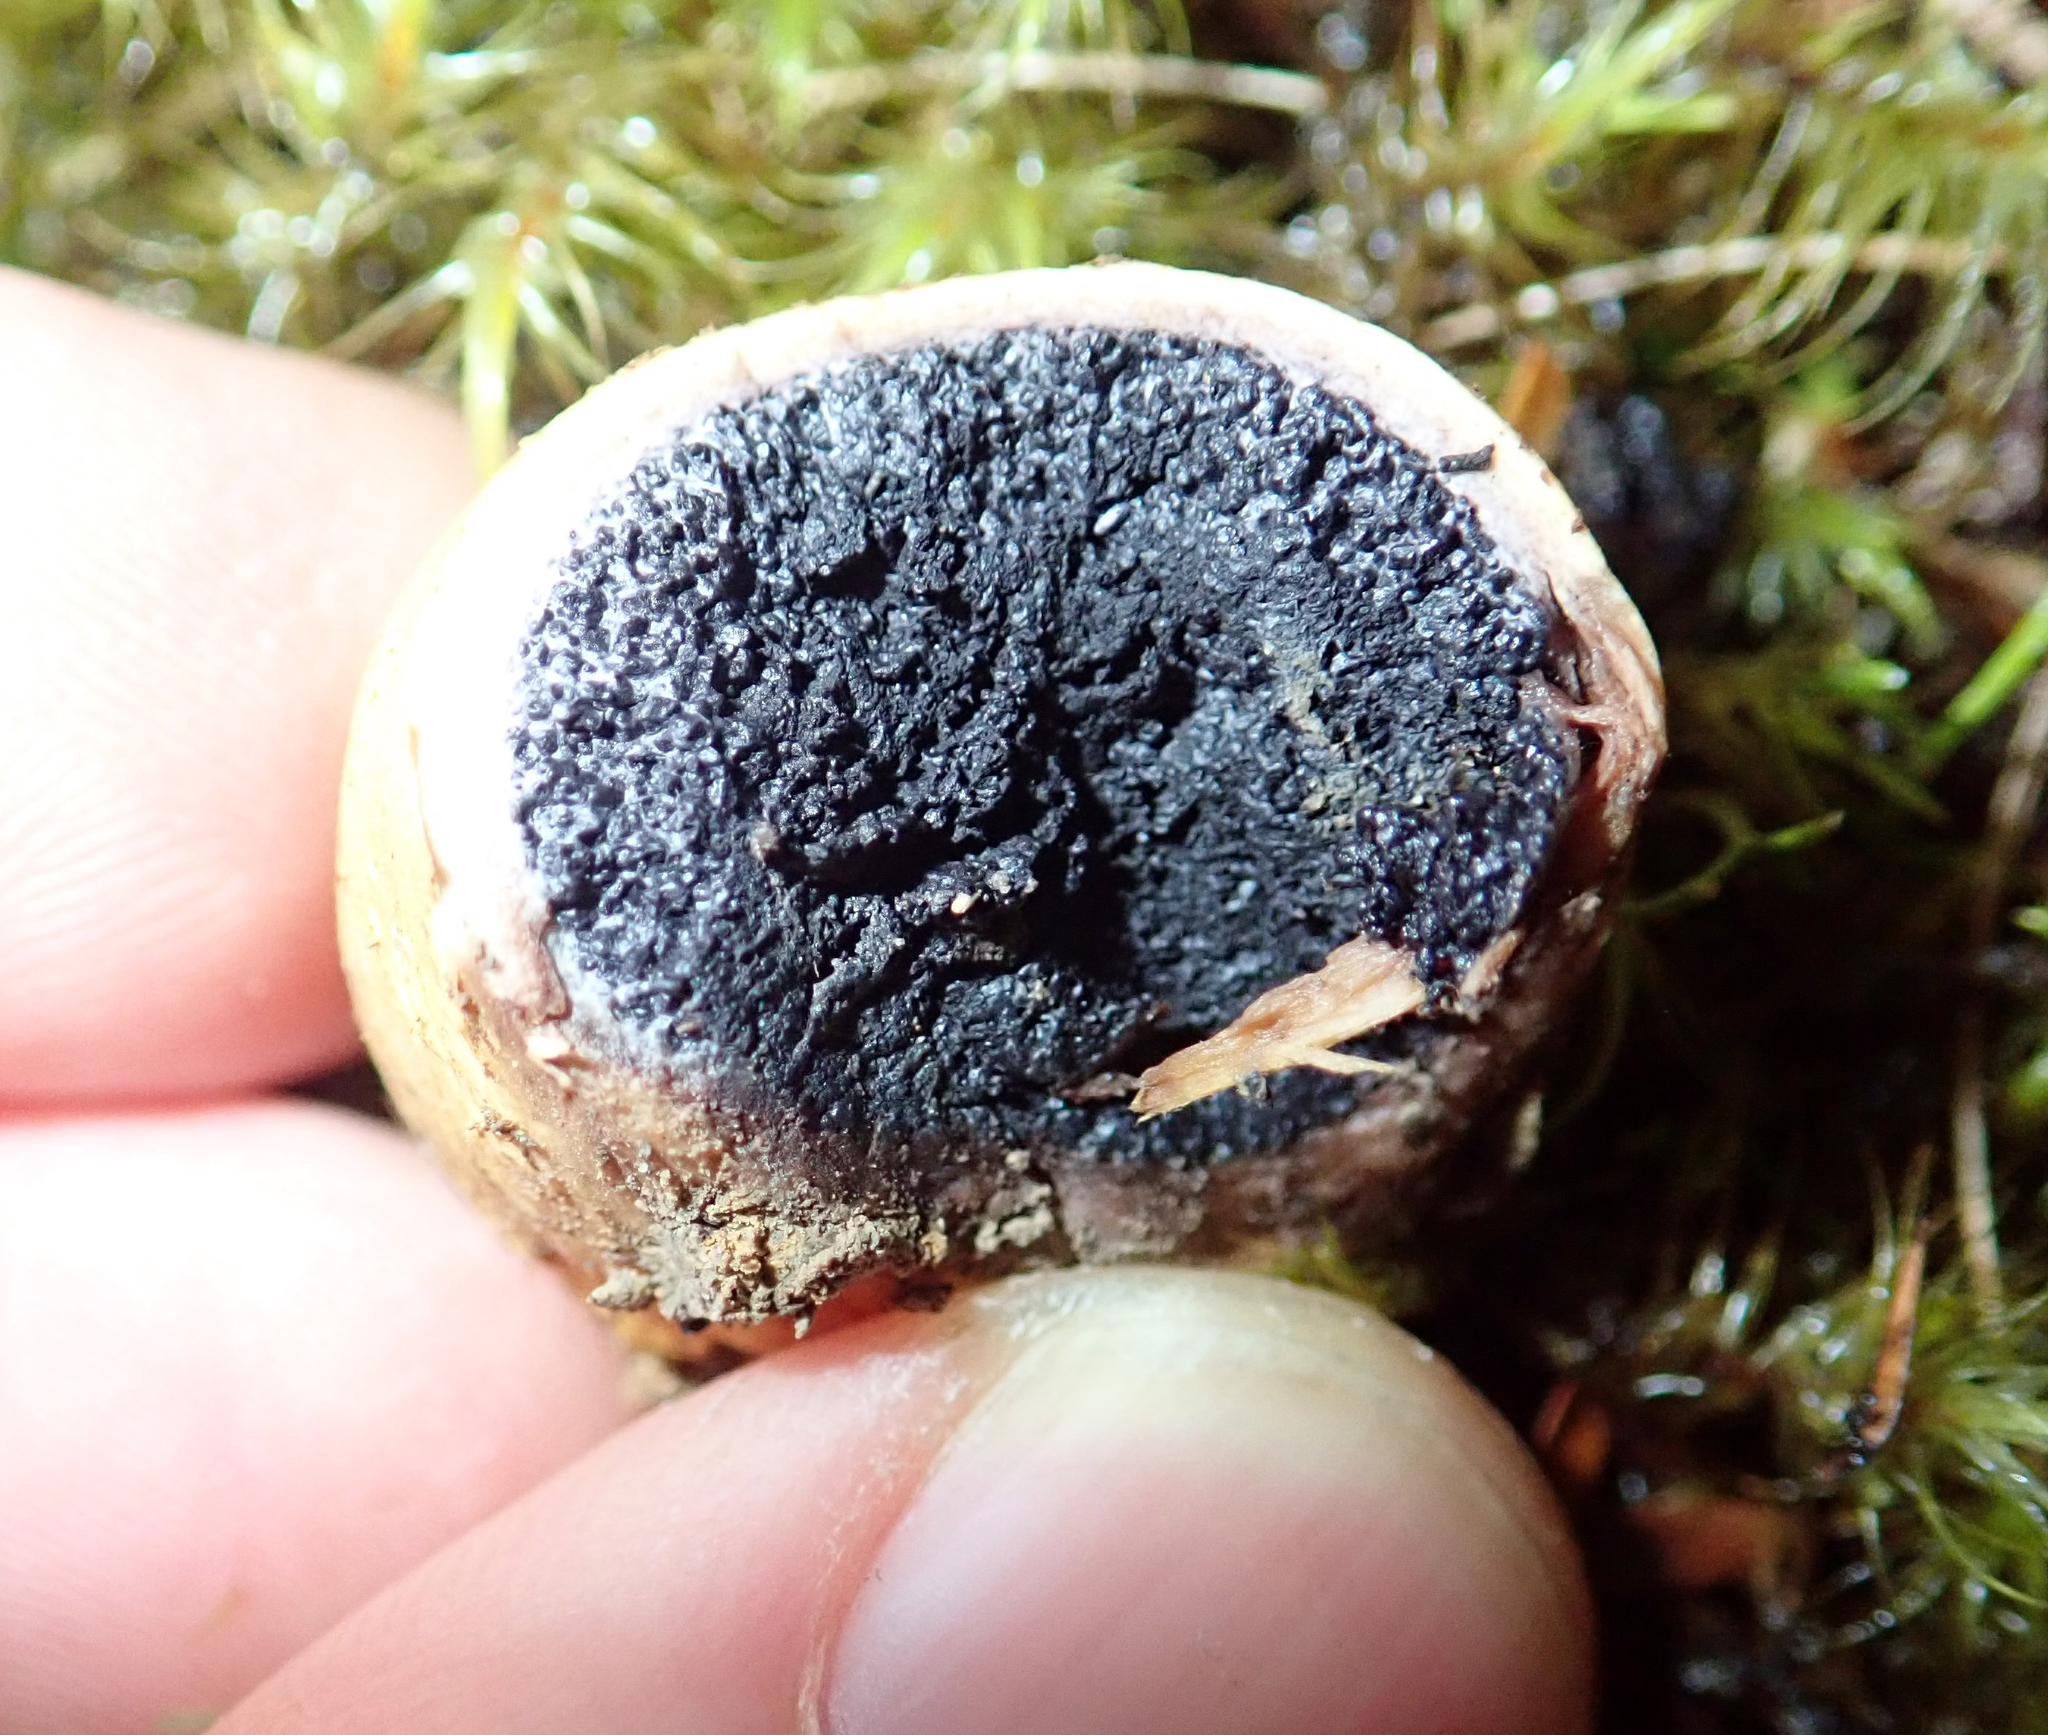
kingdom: Fungi
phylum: Basidiomycota
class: Agaricomycetes
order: Boletales
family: Sclerodermataceae
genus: Scleroderma
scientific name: Scleroderma
